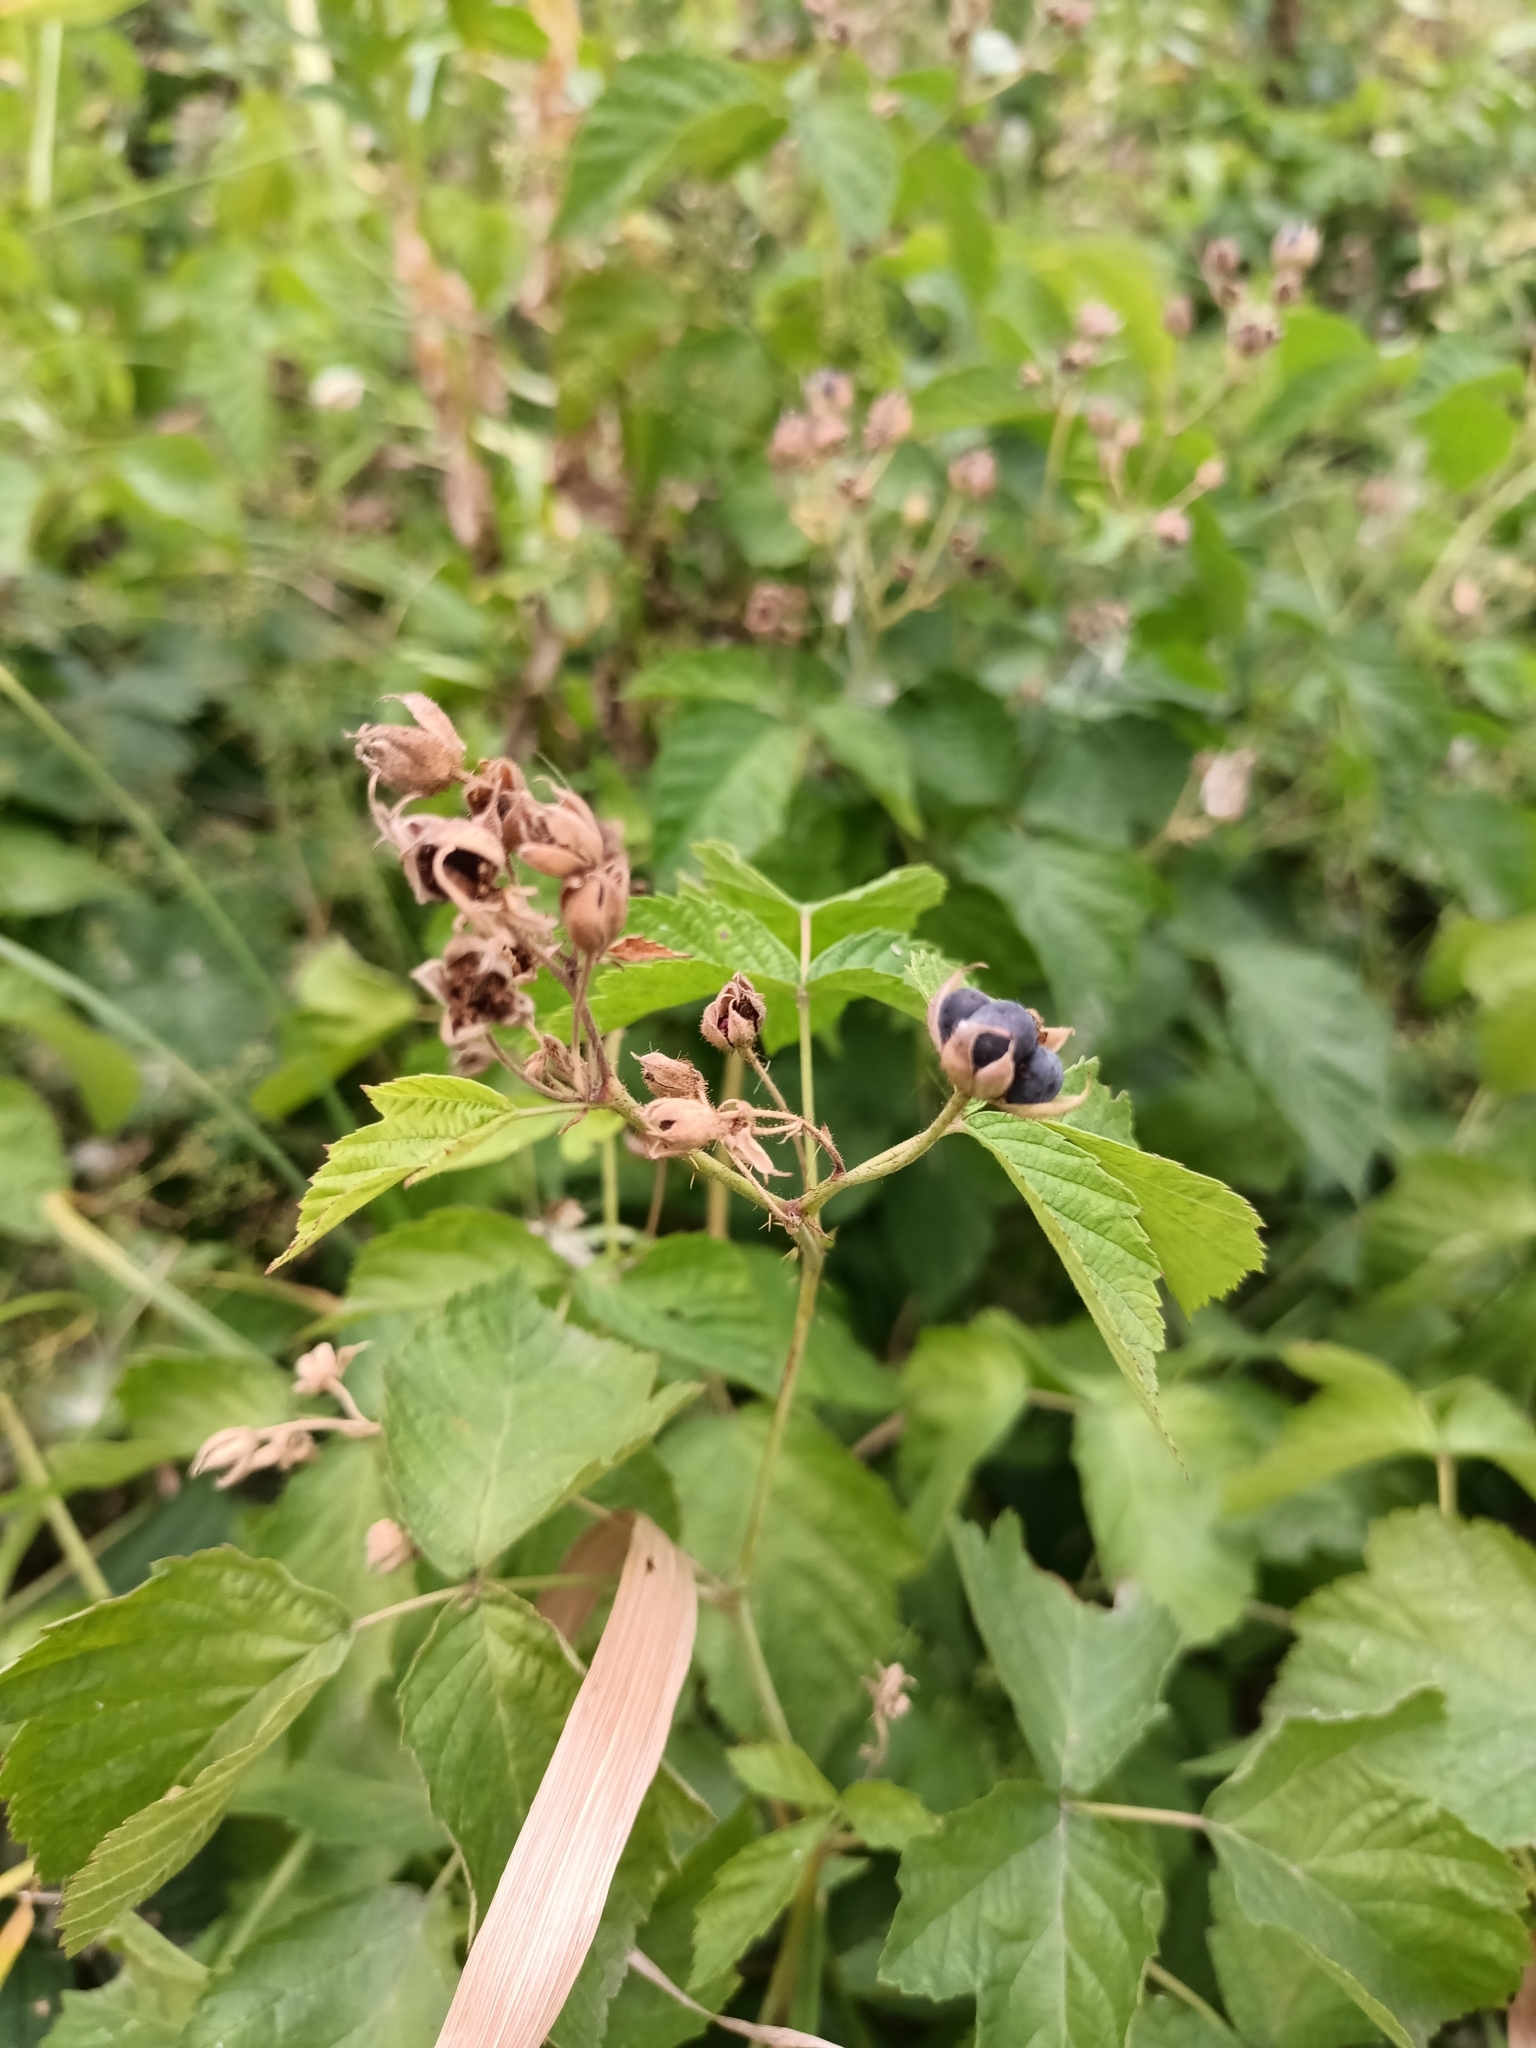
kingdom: Plantae
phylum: Tracheophyta
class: Magnoliopsida
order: Rosales
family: Rosaceae
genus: Rubus
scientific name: Rubus caesius
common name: Dewberry
